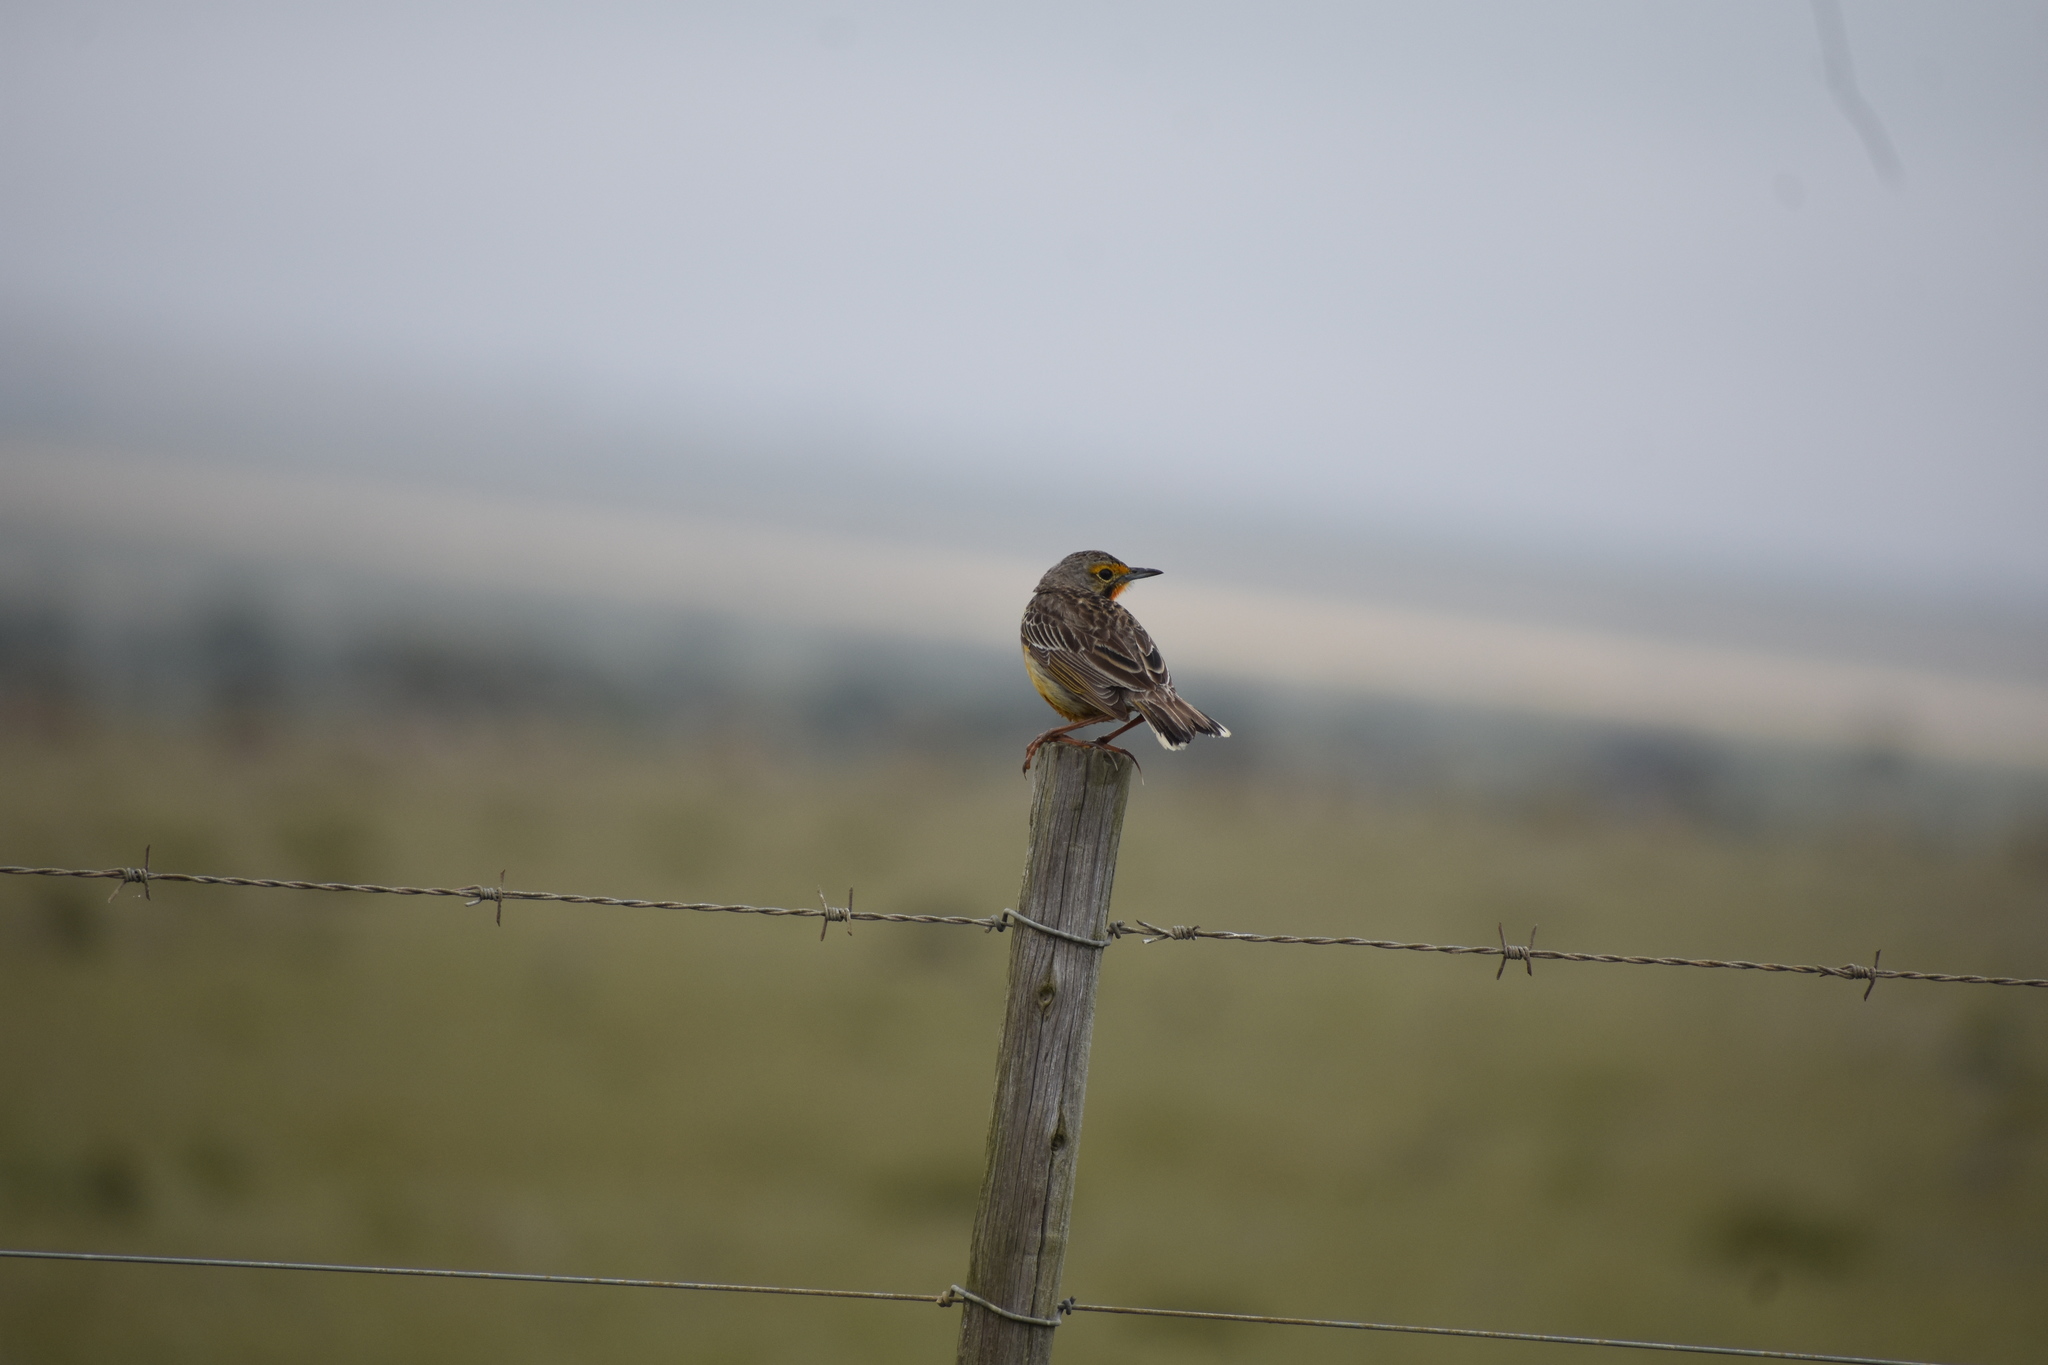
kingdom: Animalia
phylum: Chordata
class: Aves
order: Passeriformes
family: Motacillidae
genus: Macronyx
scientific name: Macronyx capensis
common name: Cape longclaw
